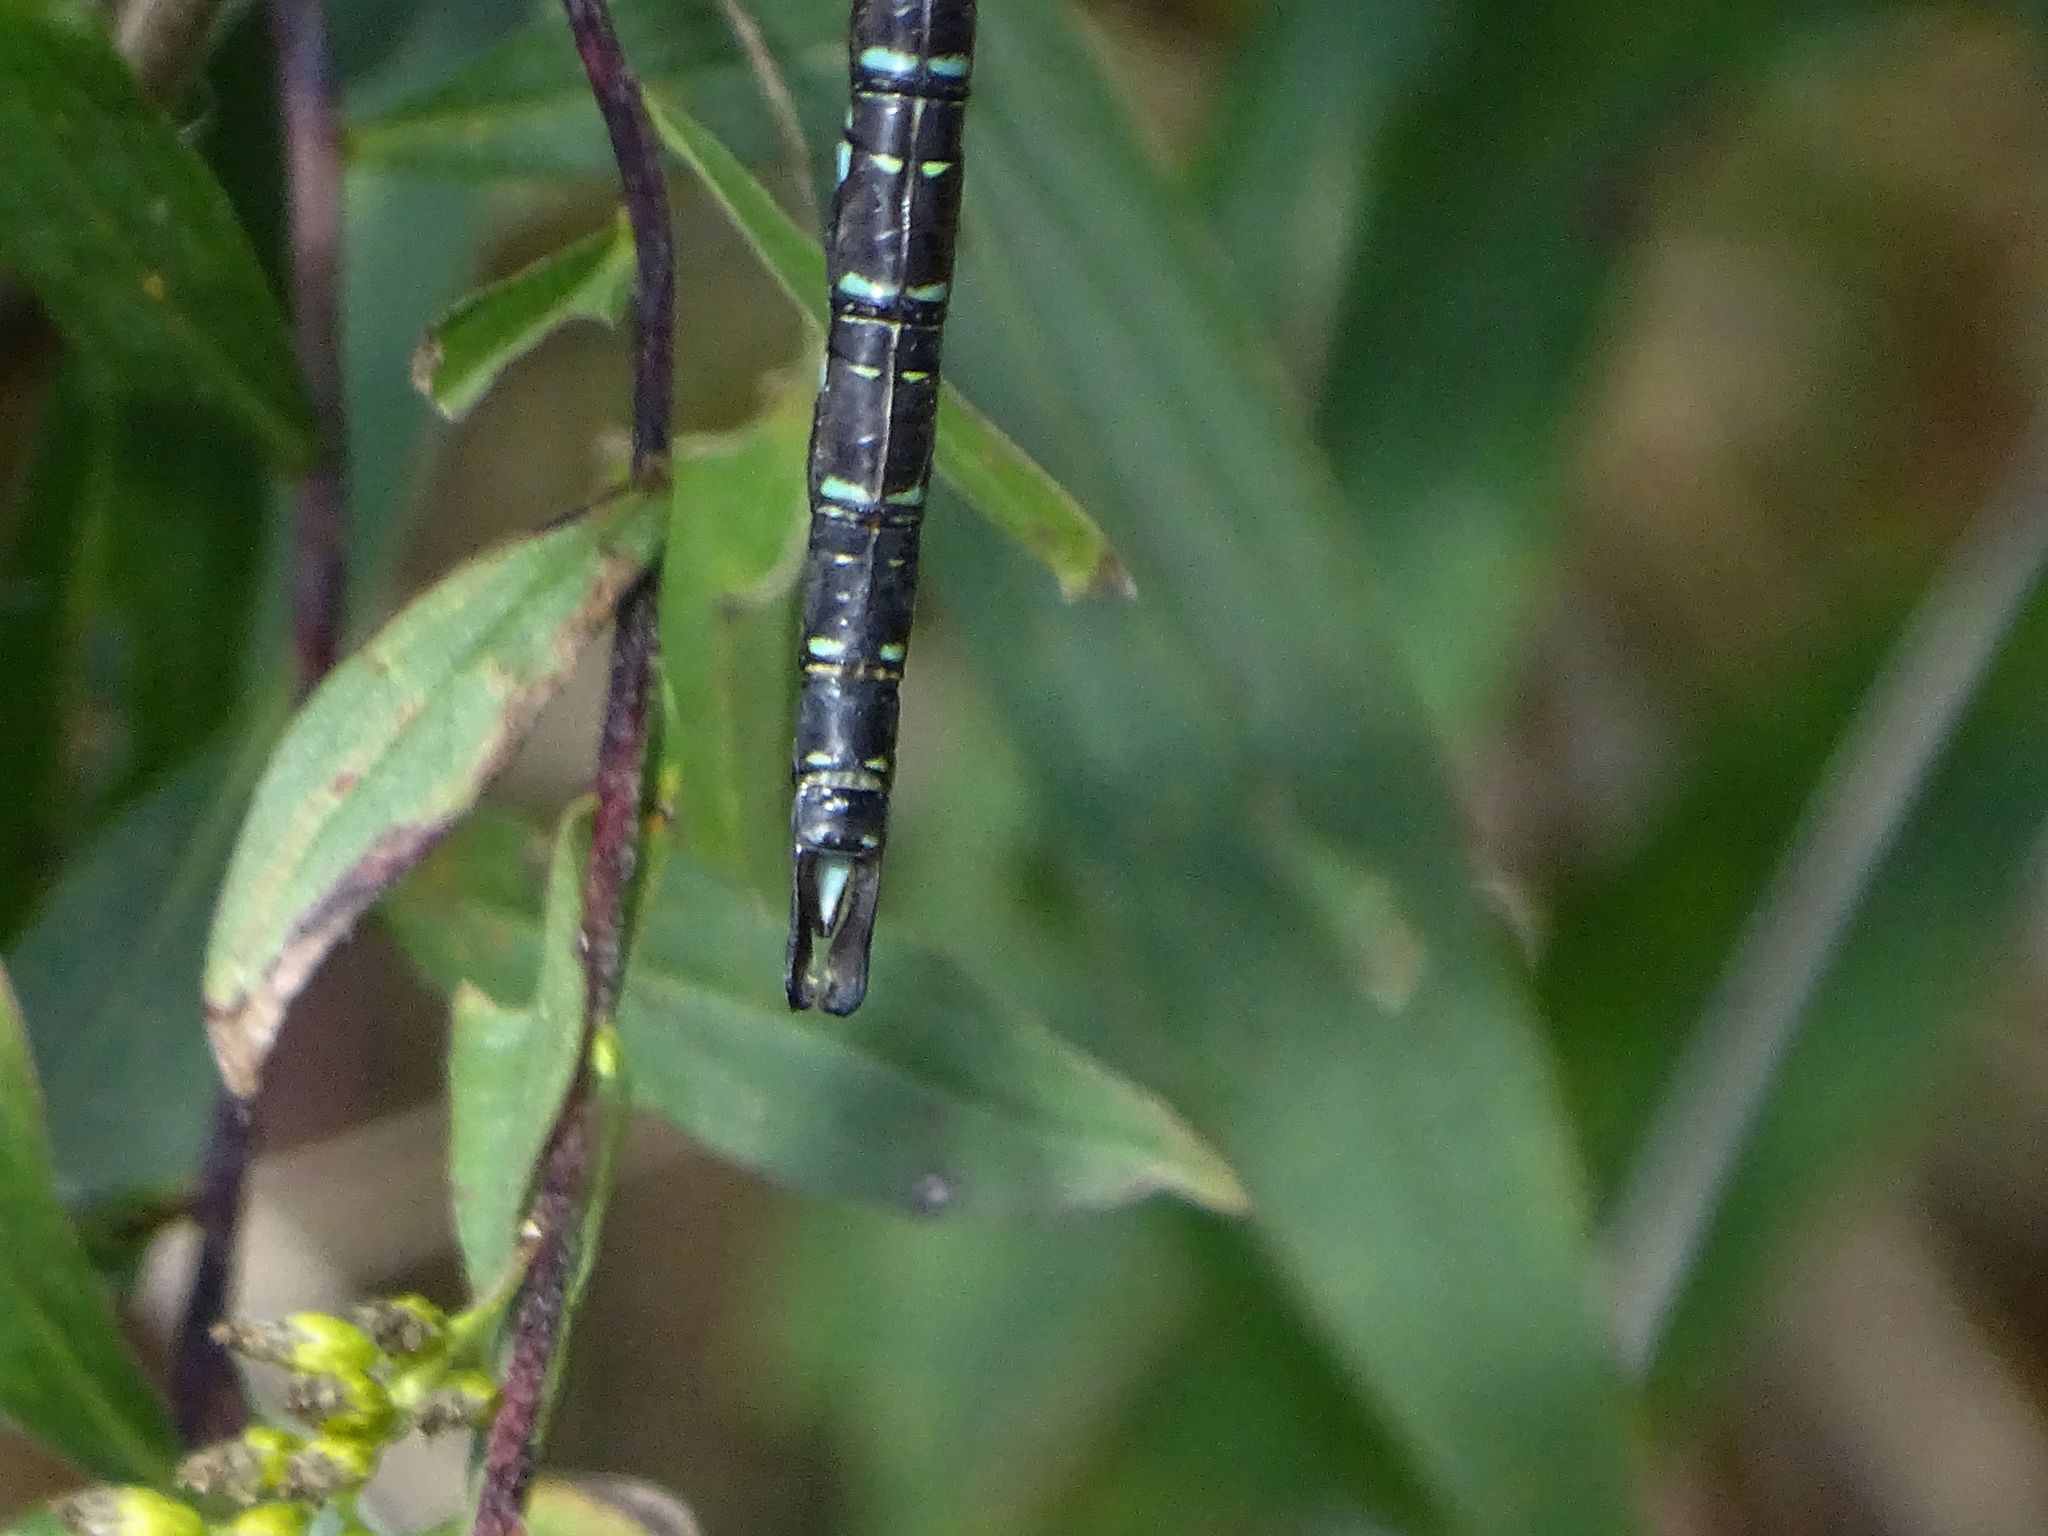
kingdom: Animalia
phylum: Arthropoda
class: Insecta
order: Odonata
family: Aeshnidae
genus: Aeshna
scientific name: Aeshna umbrosa
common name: Shadow darner
